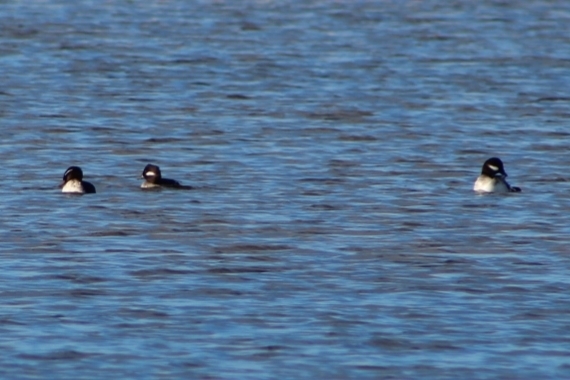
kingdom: Animalia
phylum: Chordata
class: Aves
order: Anseriformes
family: Anatidae
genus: Bucephala
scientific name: Bucephala albeola
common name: Bufflehead
